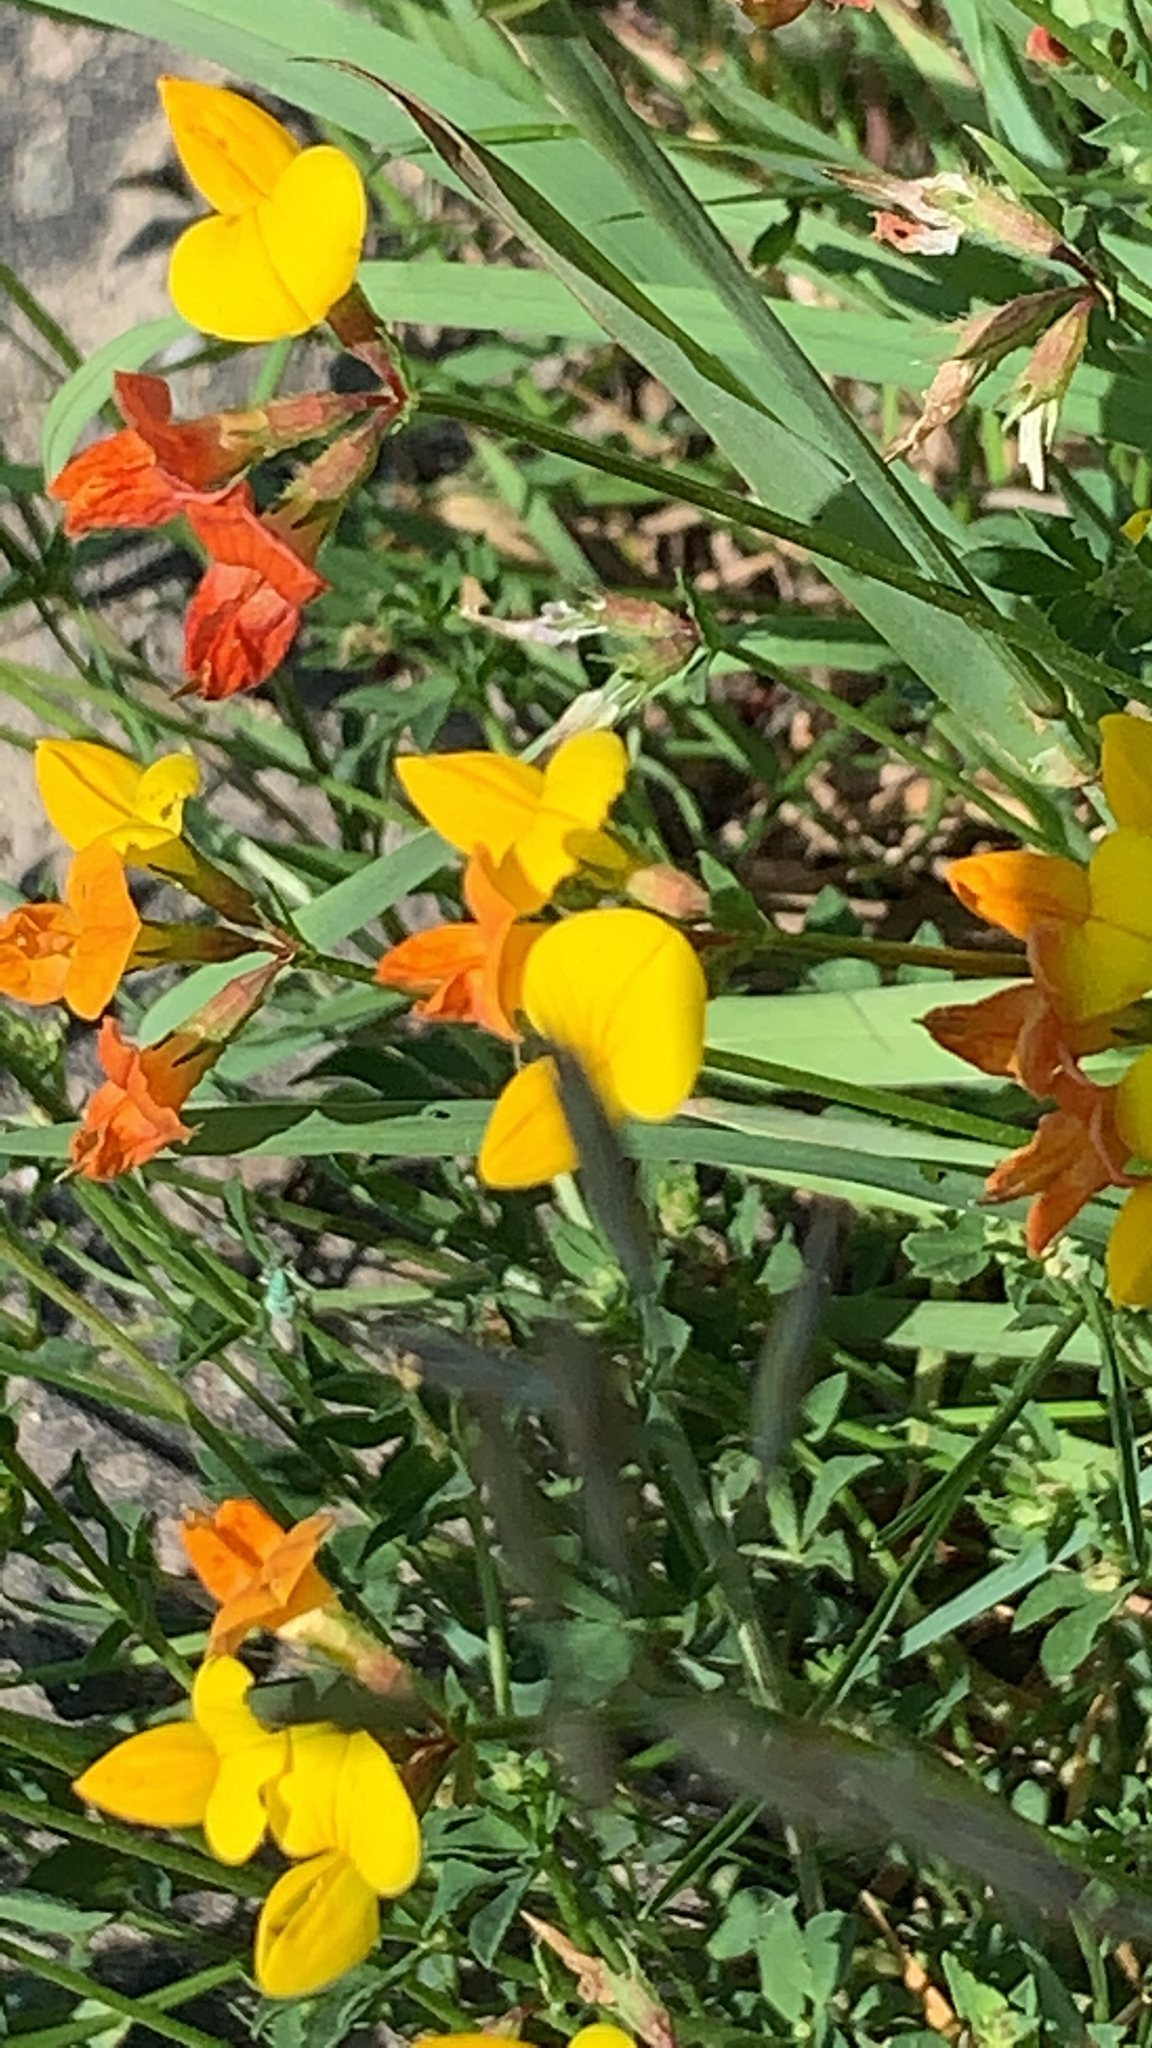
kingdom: Plantae
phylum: Tracheophyta
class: Magnoliopsida
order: Fabales
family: Fabaceae
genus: Lotus
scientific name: Lotus corniculatus
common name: Common bird's-foot-trefoil
